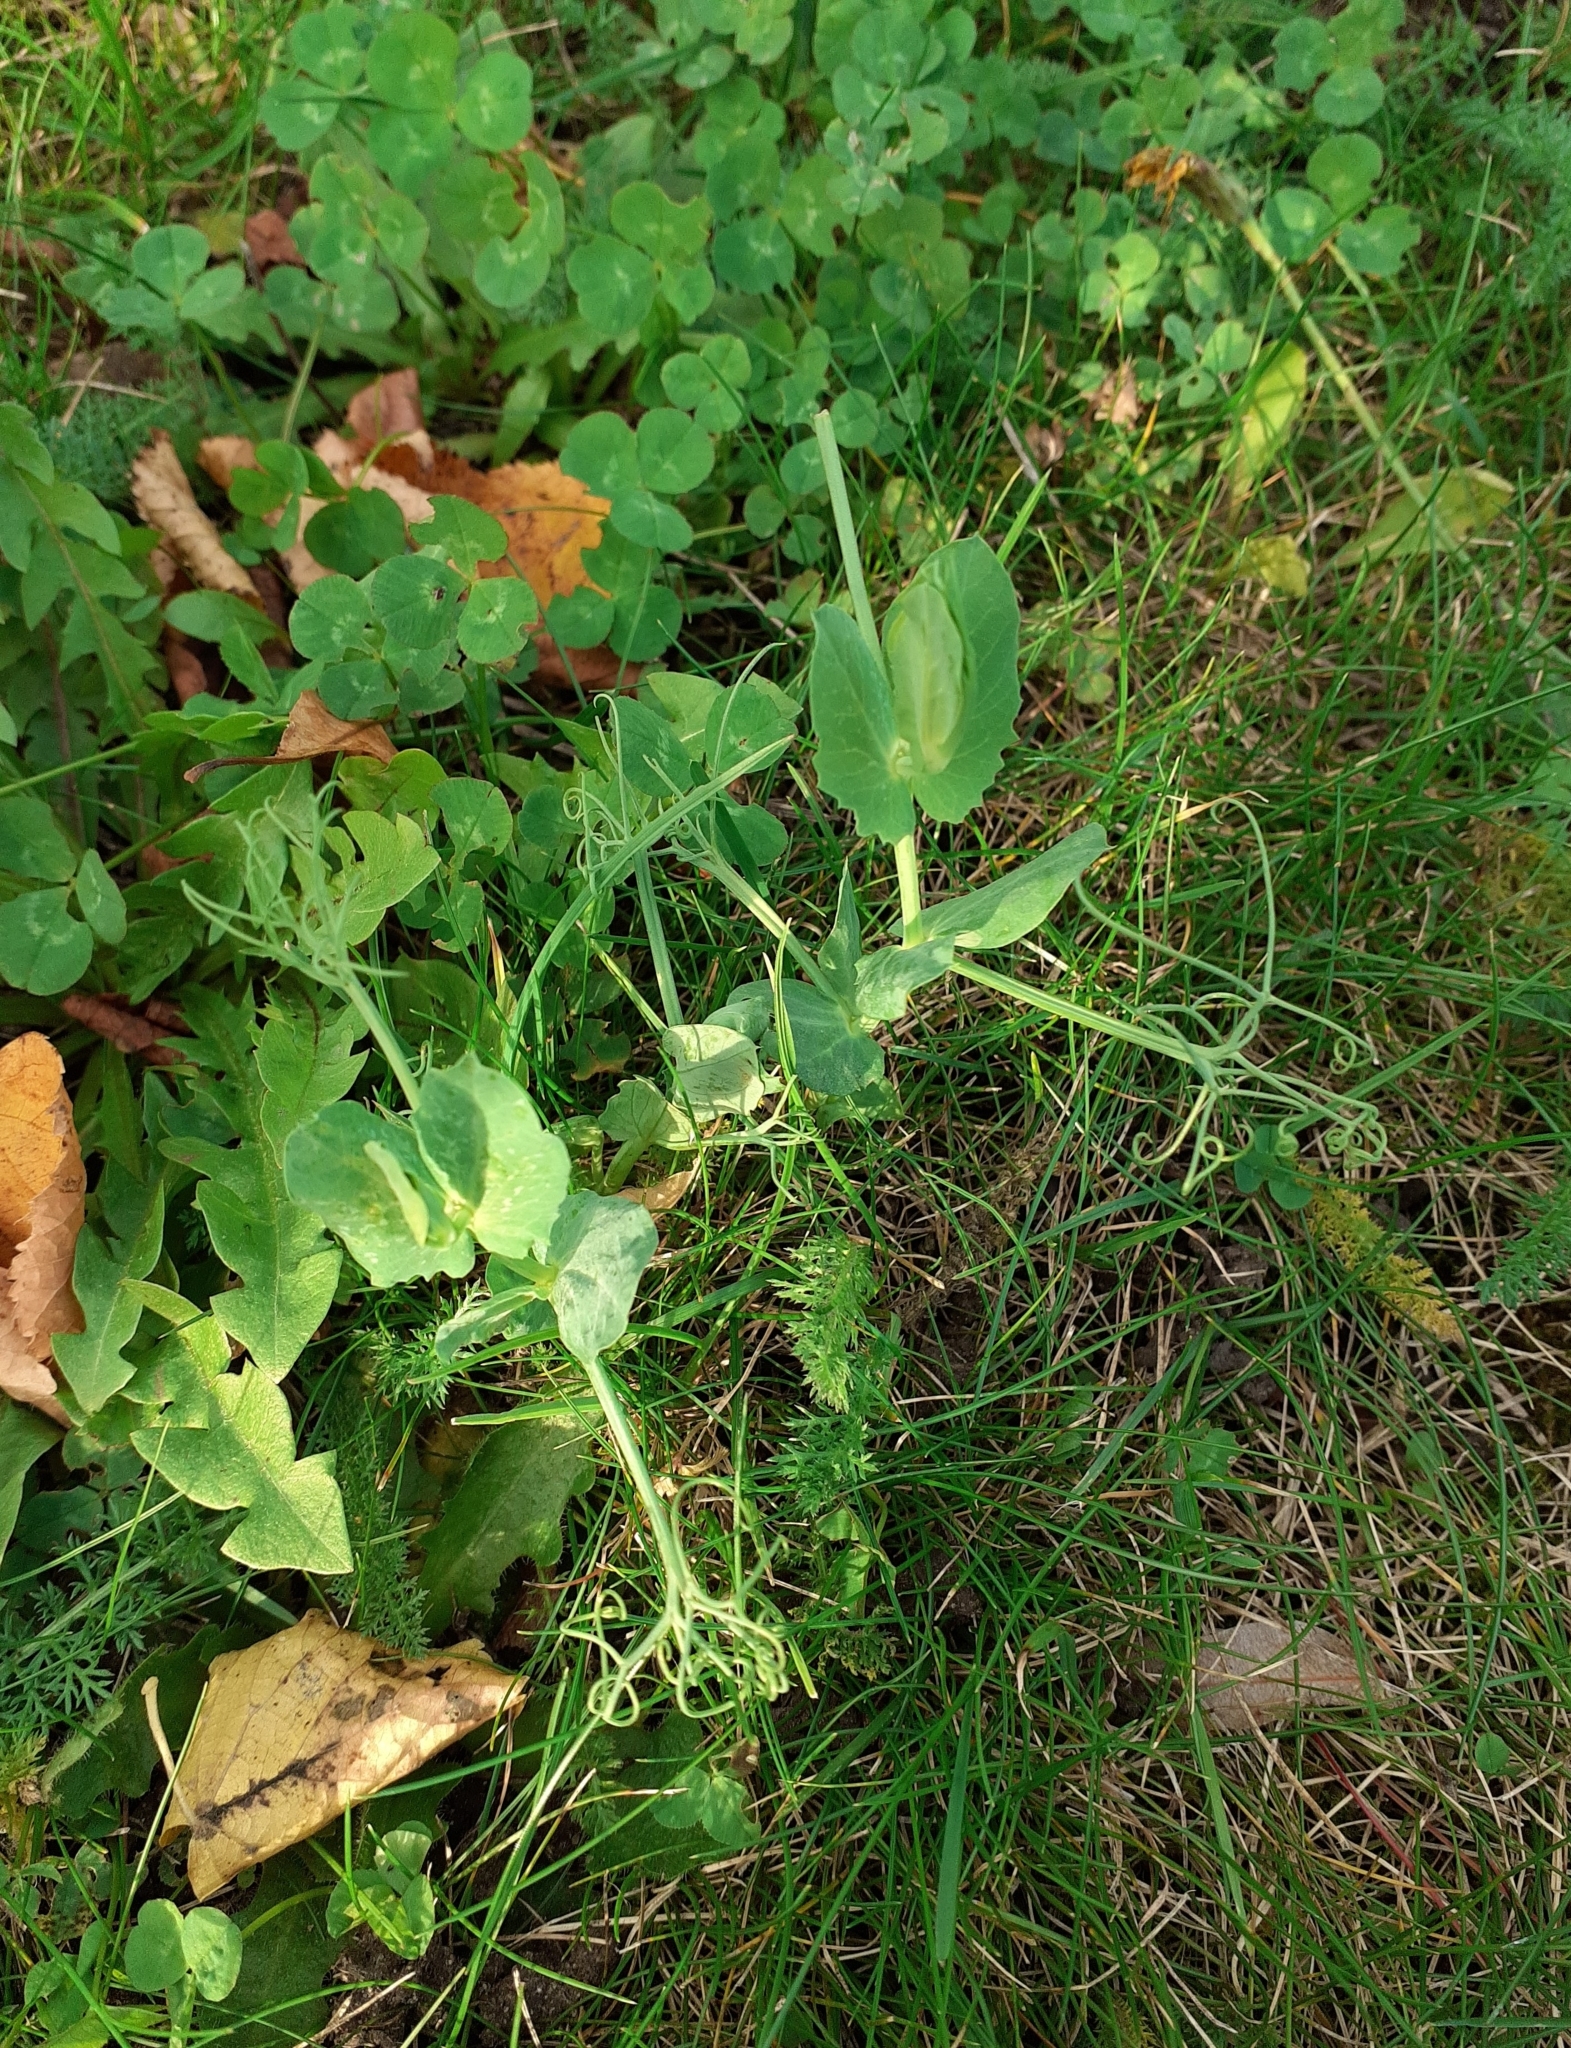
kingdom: Plantae
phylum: Tracheophyta
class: Magnoliopsida
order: Fabales
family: Fabaceae
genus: Lathyrus
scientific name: Lathyrus oleraceus
